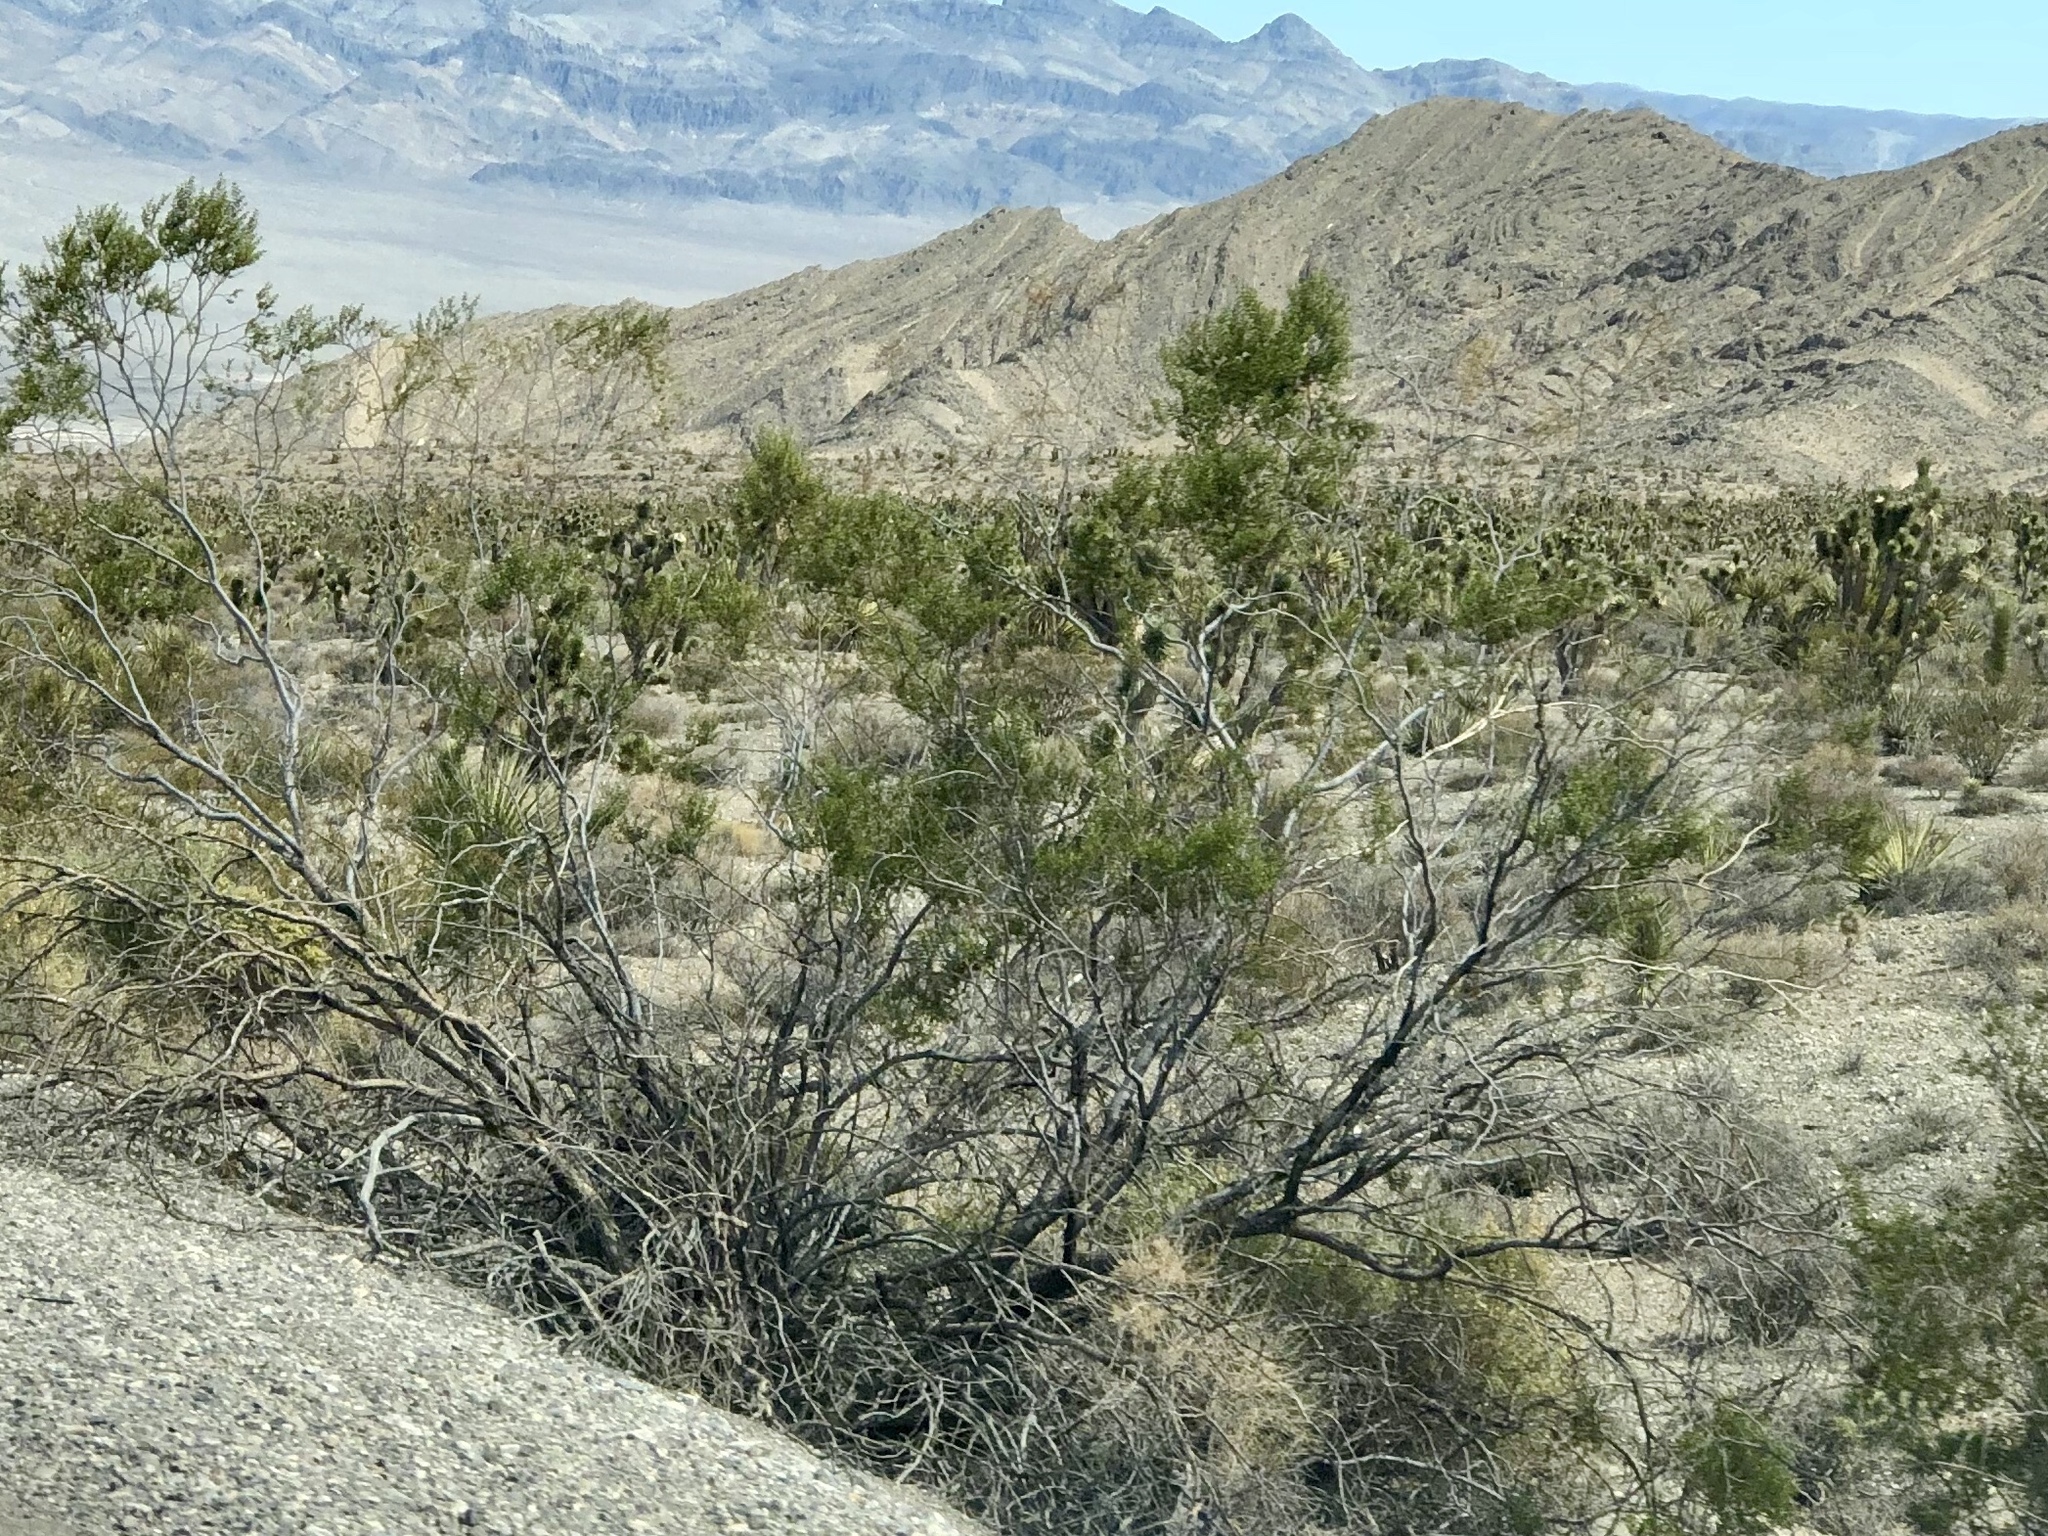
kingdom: Plantae
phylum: Tracheophyta
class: Magnoliopsida
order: Zygophyllales
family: Zygophyllaceae
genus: Larrea
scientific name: Larrea tridentata
